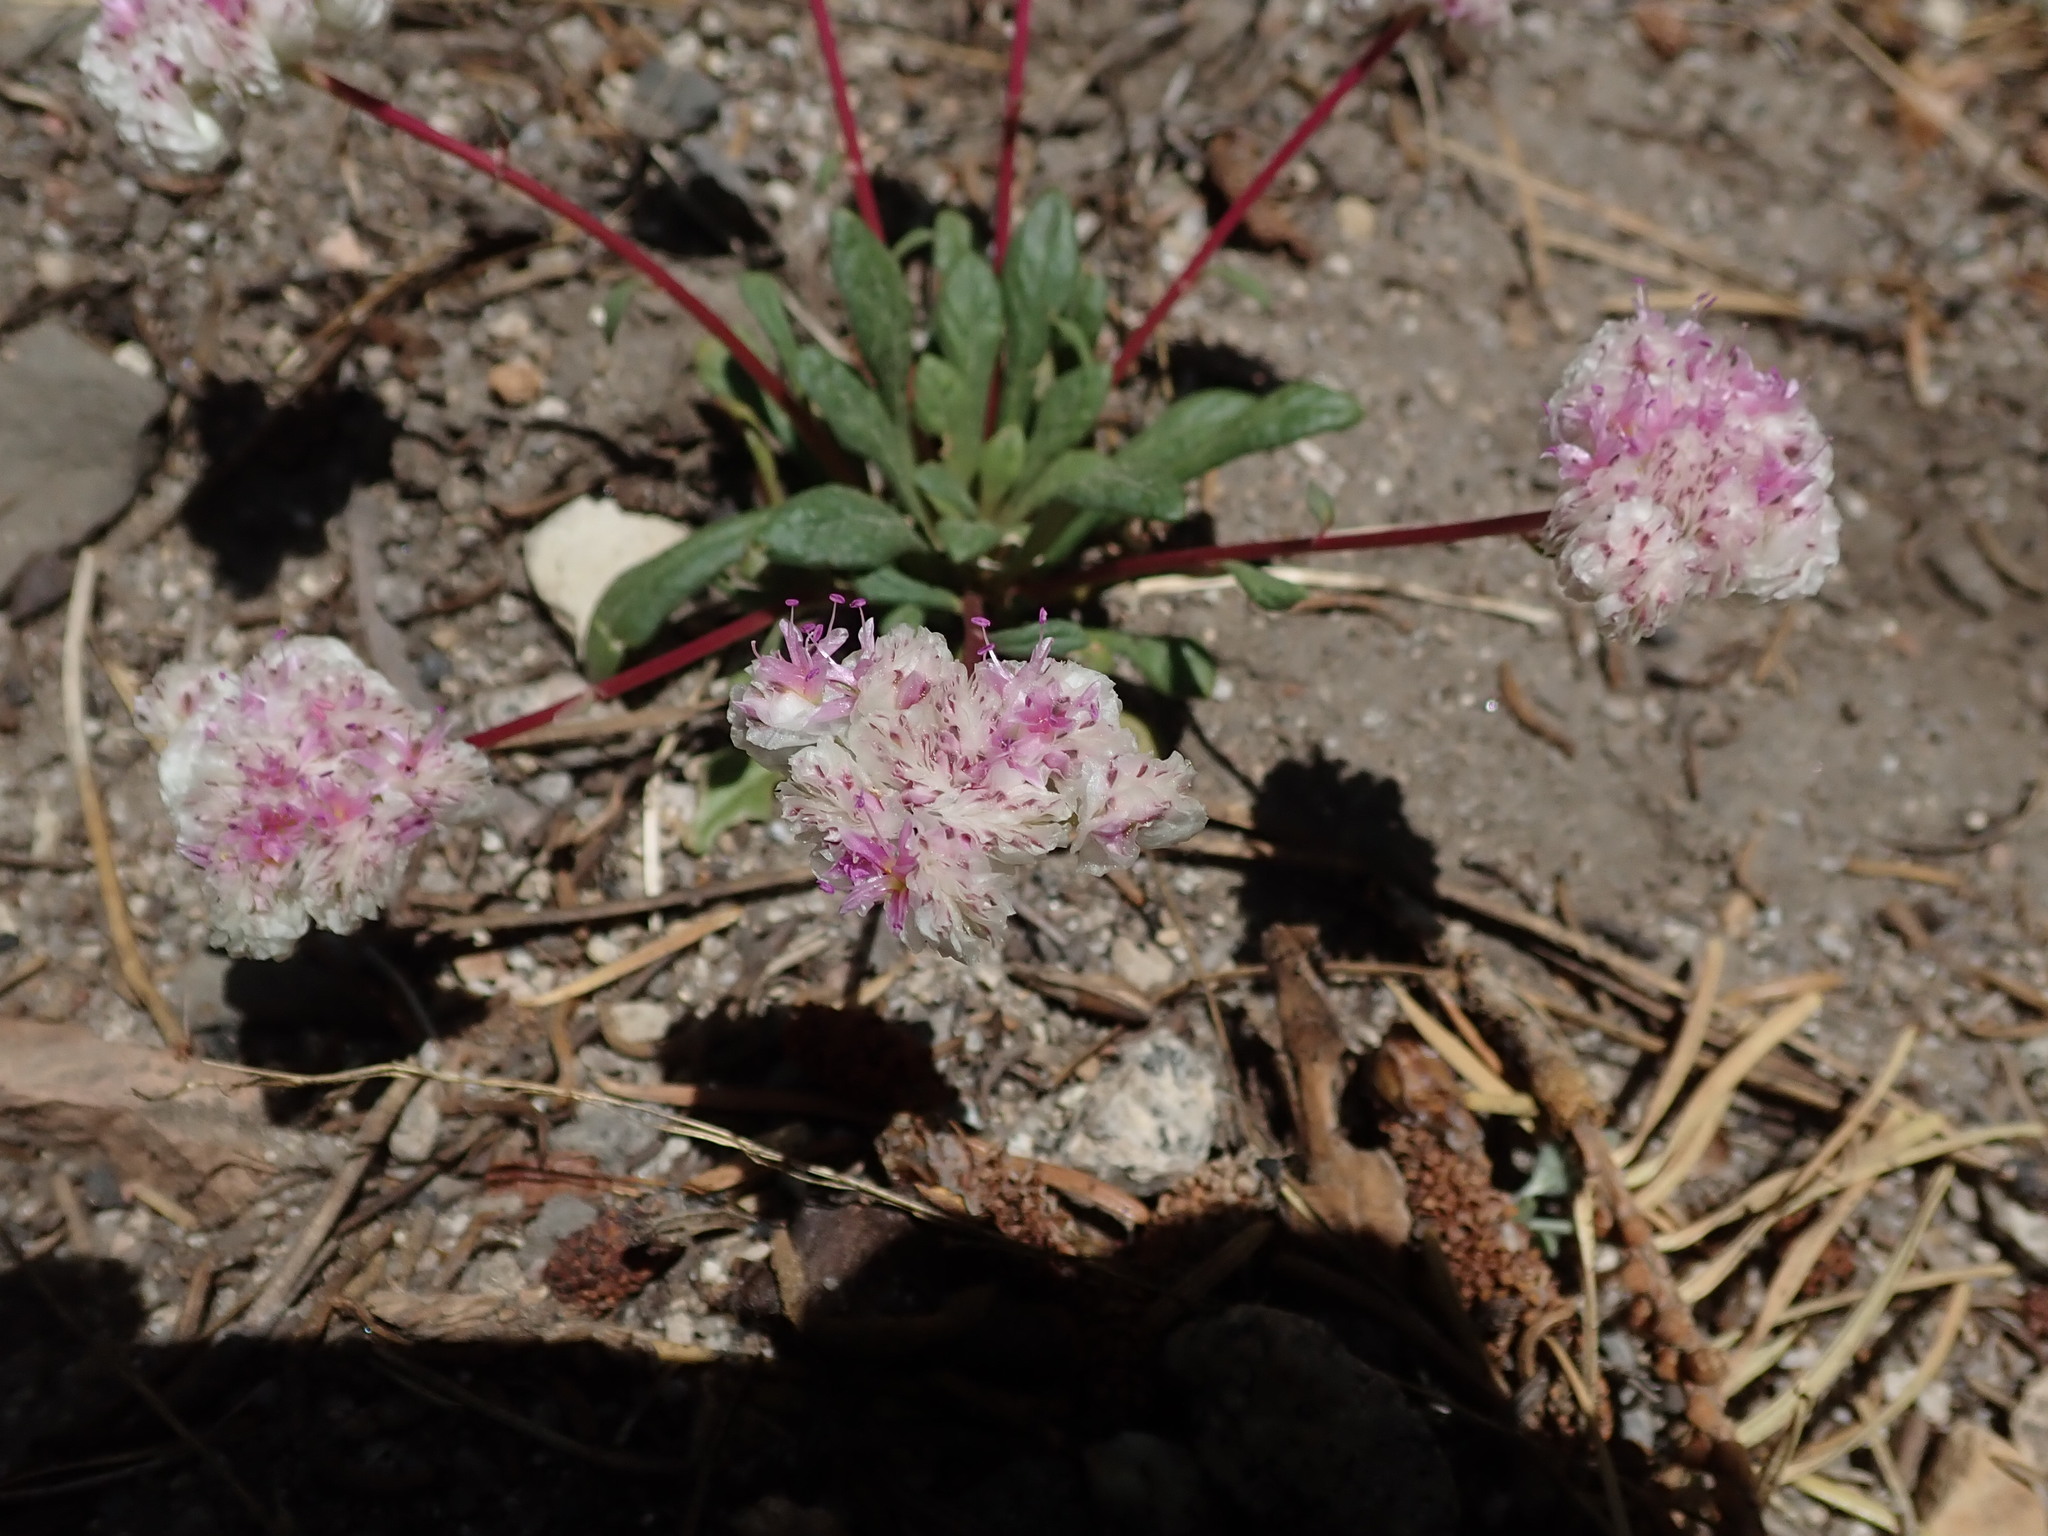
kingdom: Plantae
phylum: Tracheophyta
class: Magnoliopsida
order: Caryophyllales
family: Montiaceae
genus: Calyptridium
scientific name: Calyptridium monospermum
